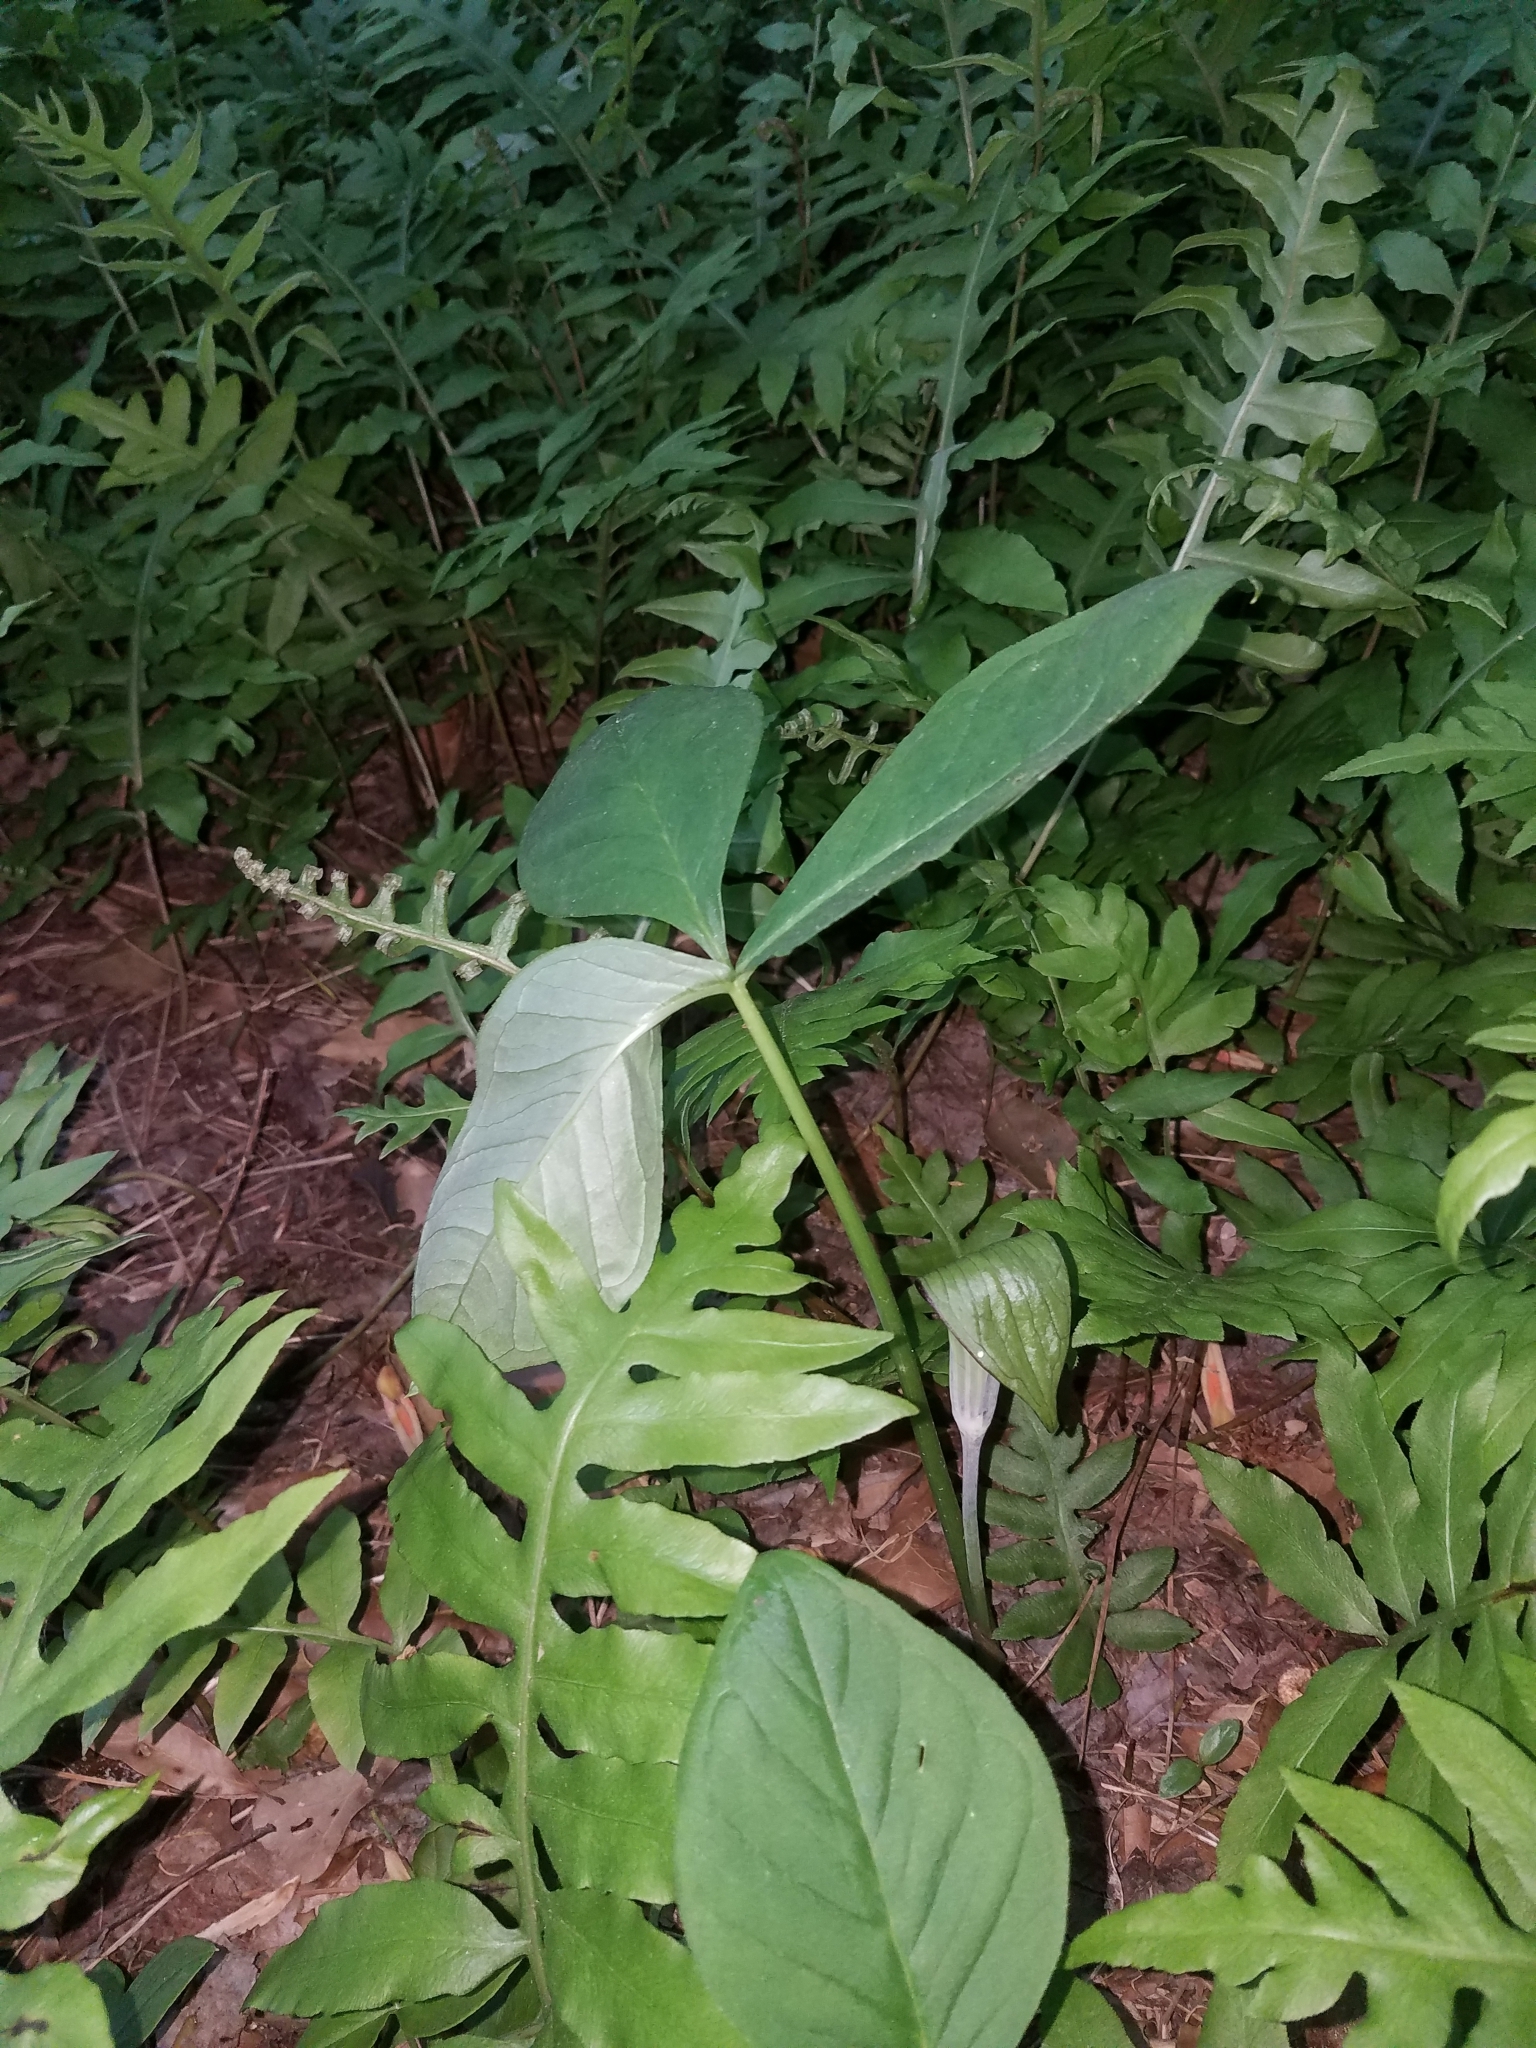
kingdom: Plantae
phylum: Tracheophyta
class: Liliopsida
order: Alismatales
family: Araceae
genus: Arisaema
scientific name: Arisaema triphyllum
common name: Jack-in-the-pulpit
